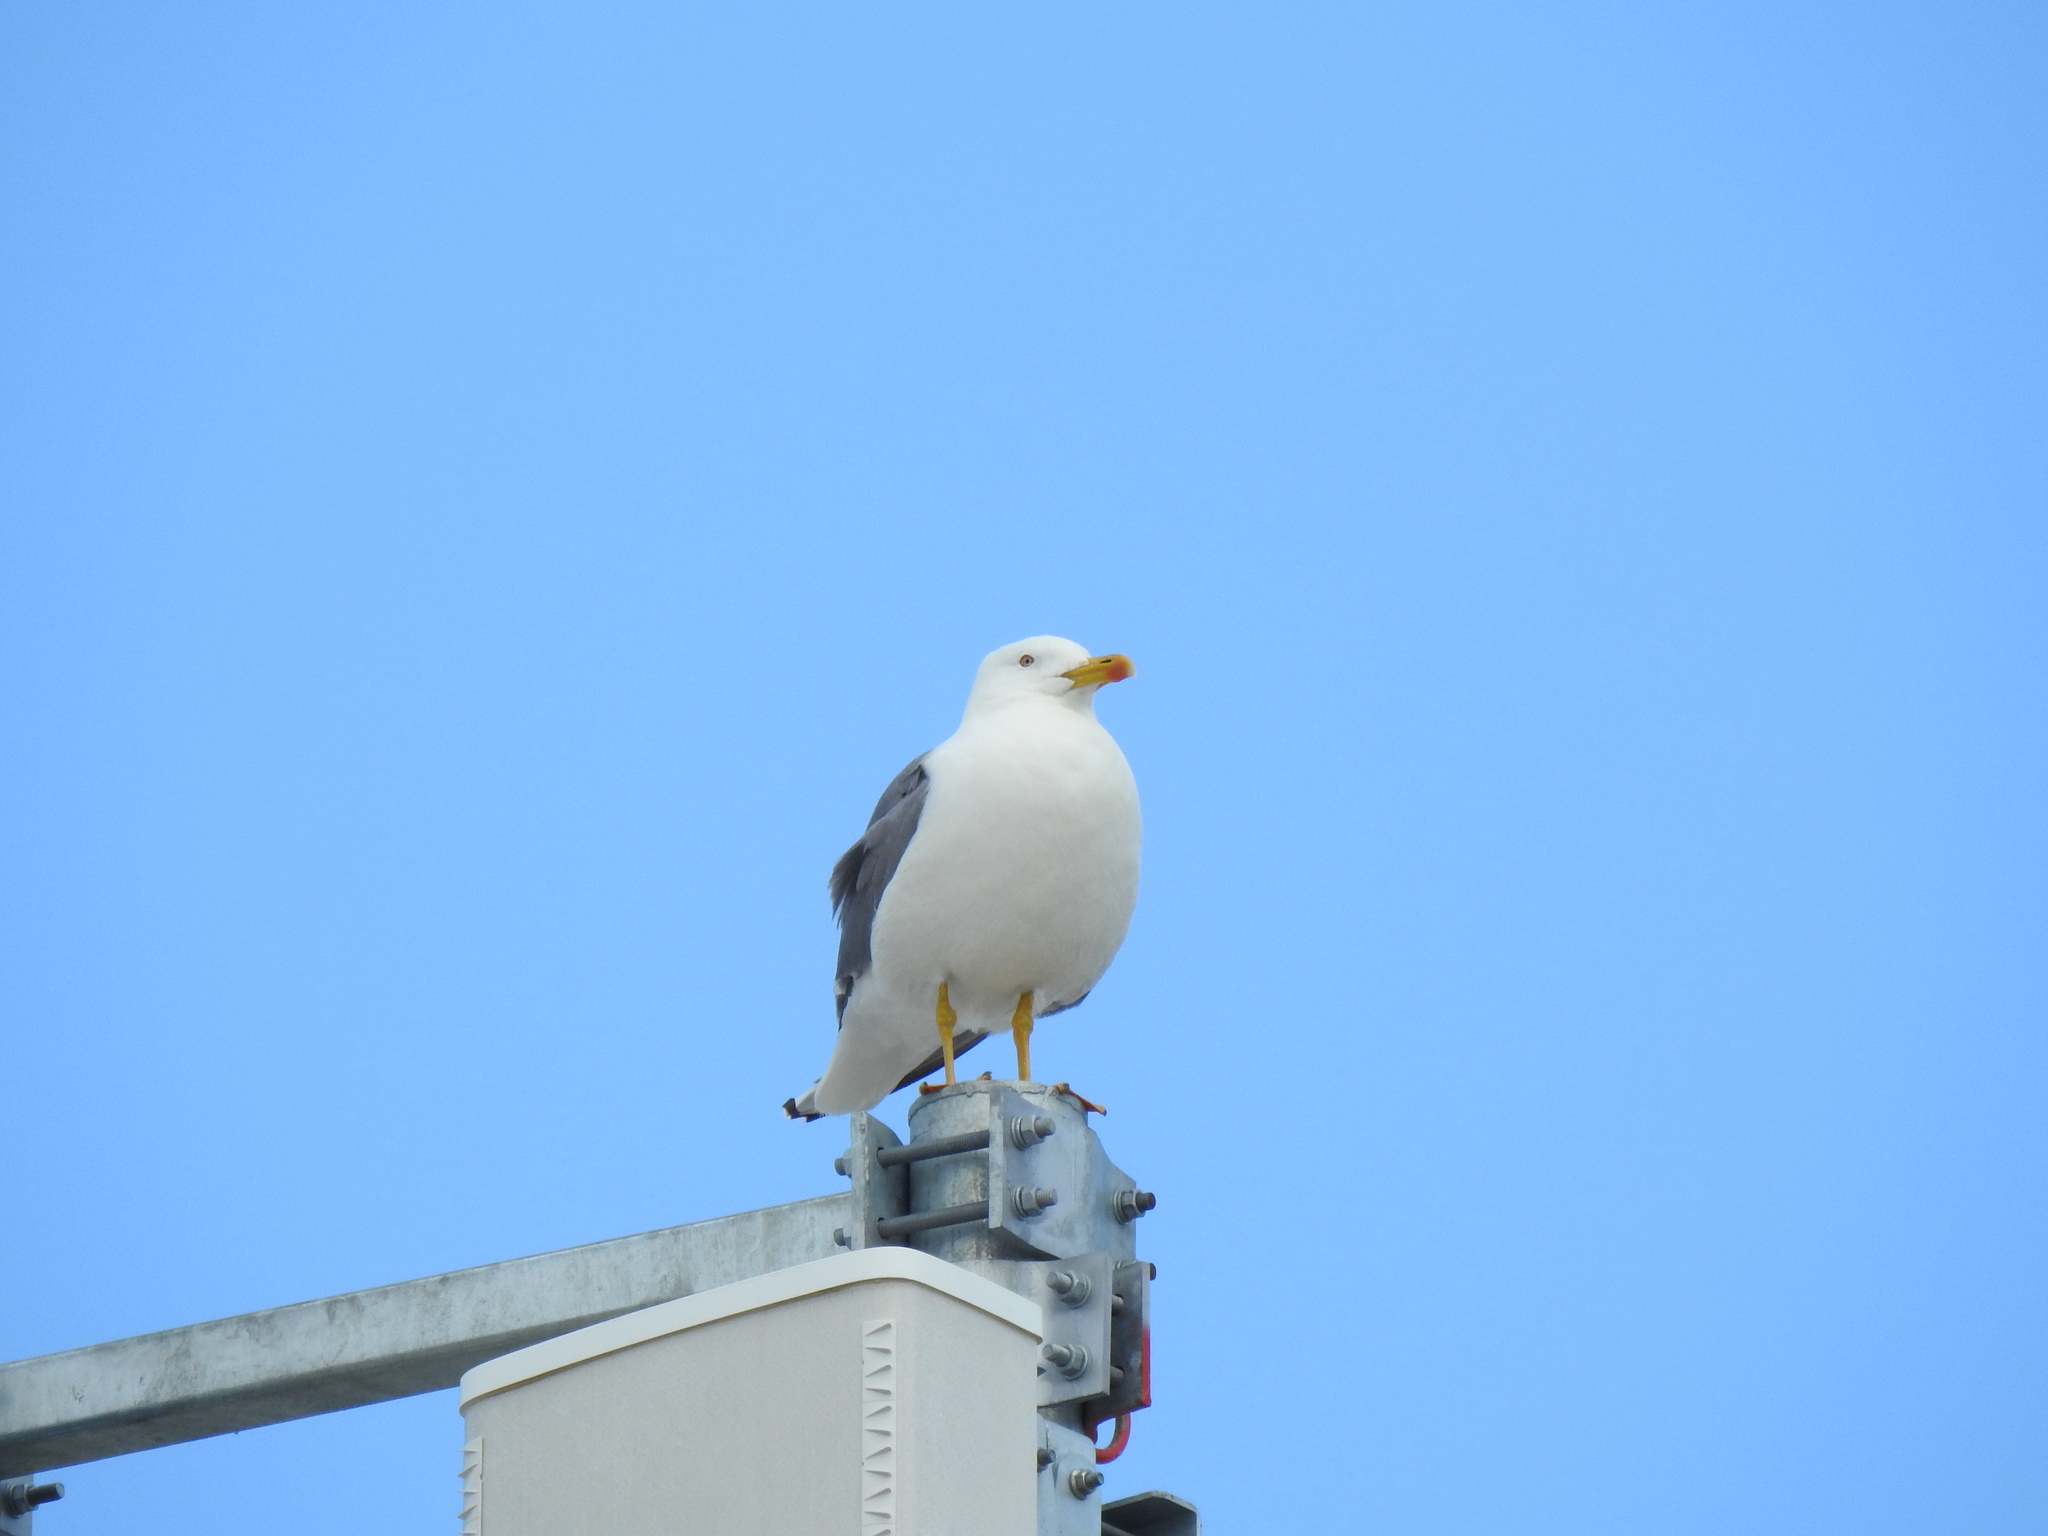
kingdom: Animalia
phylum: Chordata
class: Aves
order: Charadriiformes
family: Laridae
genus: Larus
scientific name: Larus michahellis
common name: Yellow-legged gull
